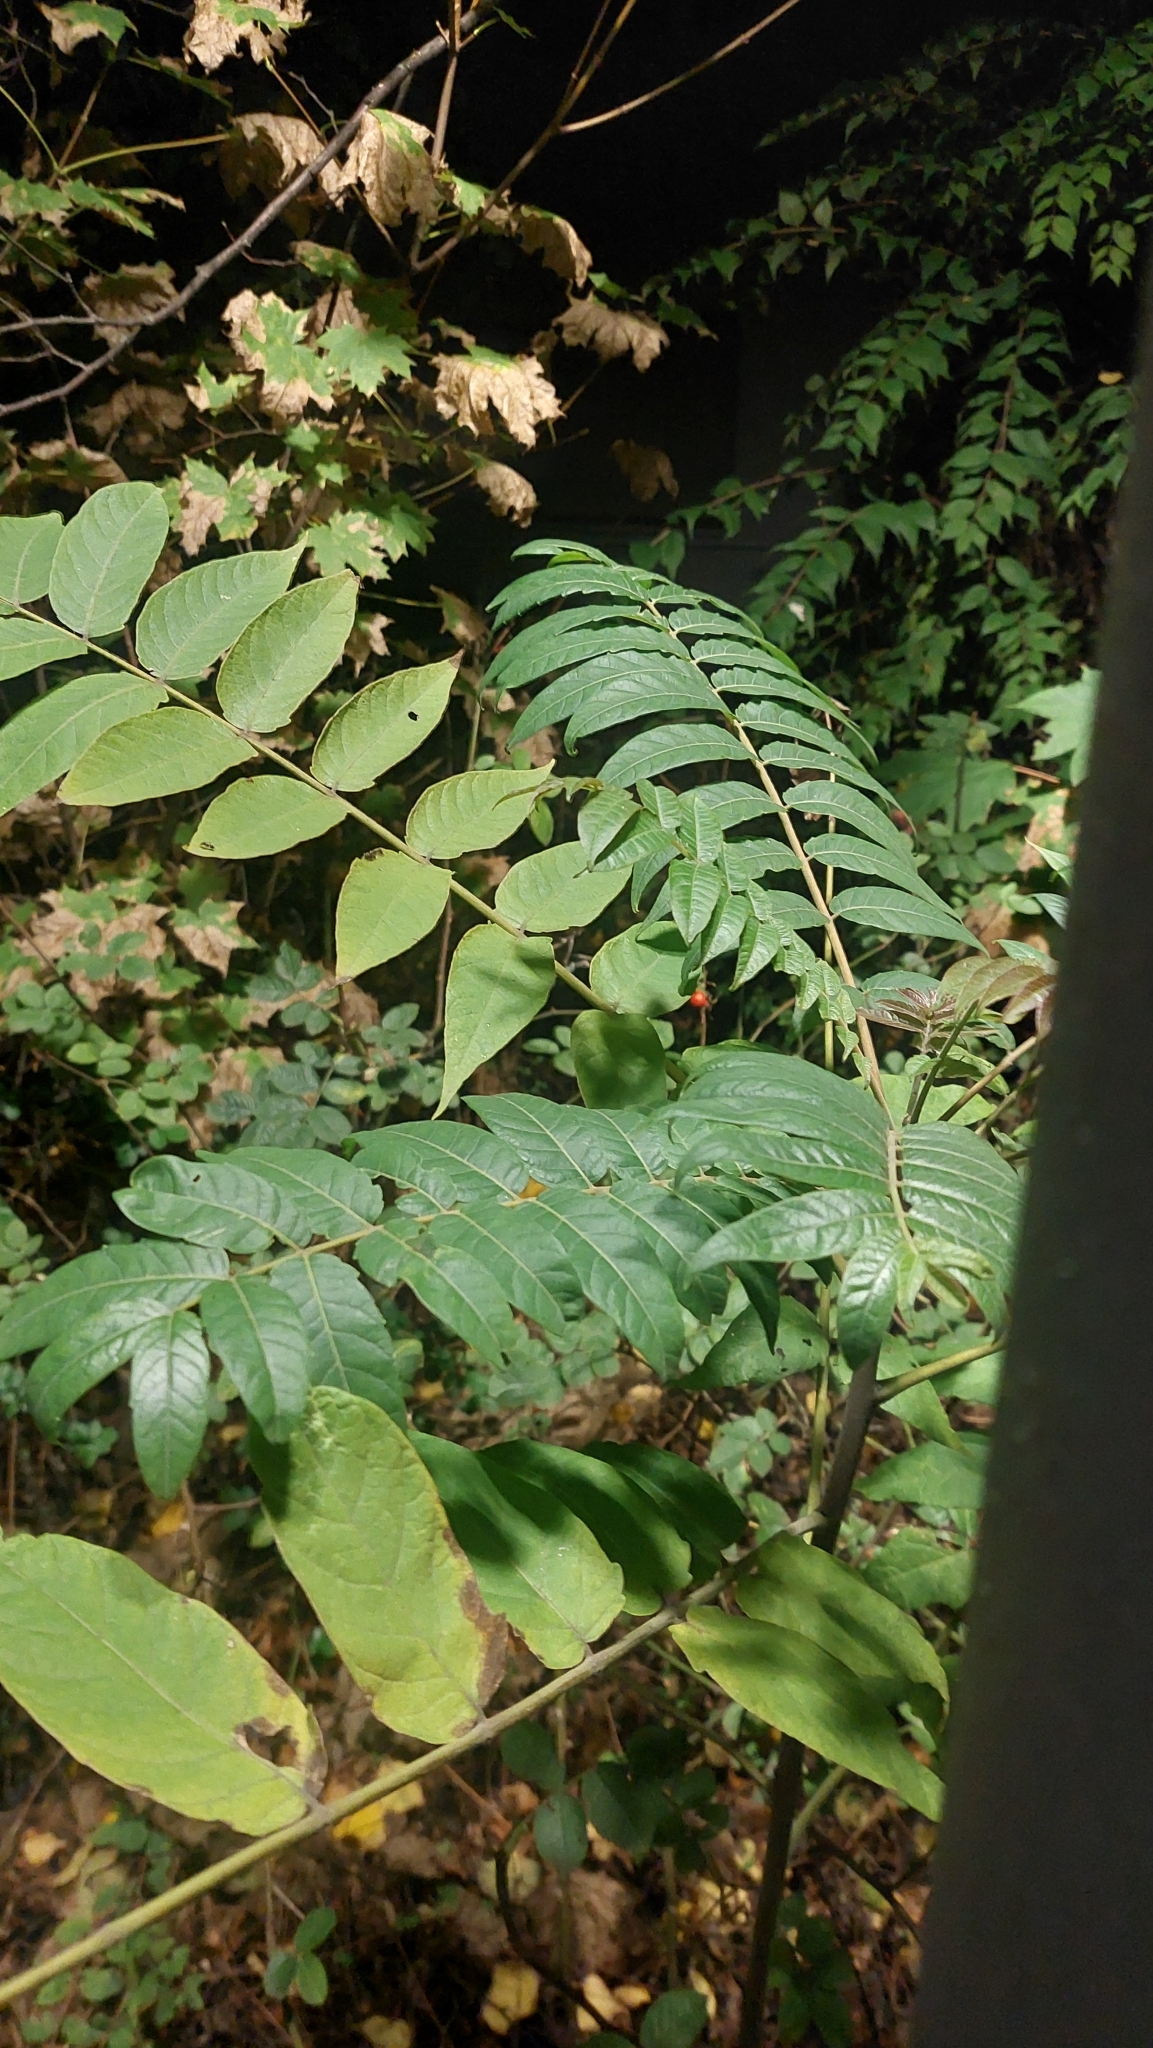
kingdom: Plantae
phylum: Tracheophyta
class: Magnoliopsida
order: Sapindales
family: Simaroubaceae
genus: Ailanthus
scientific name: Ailanthus altissima
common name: Tree-of-heaven
